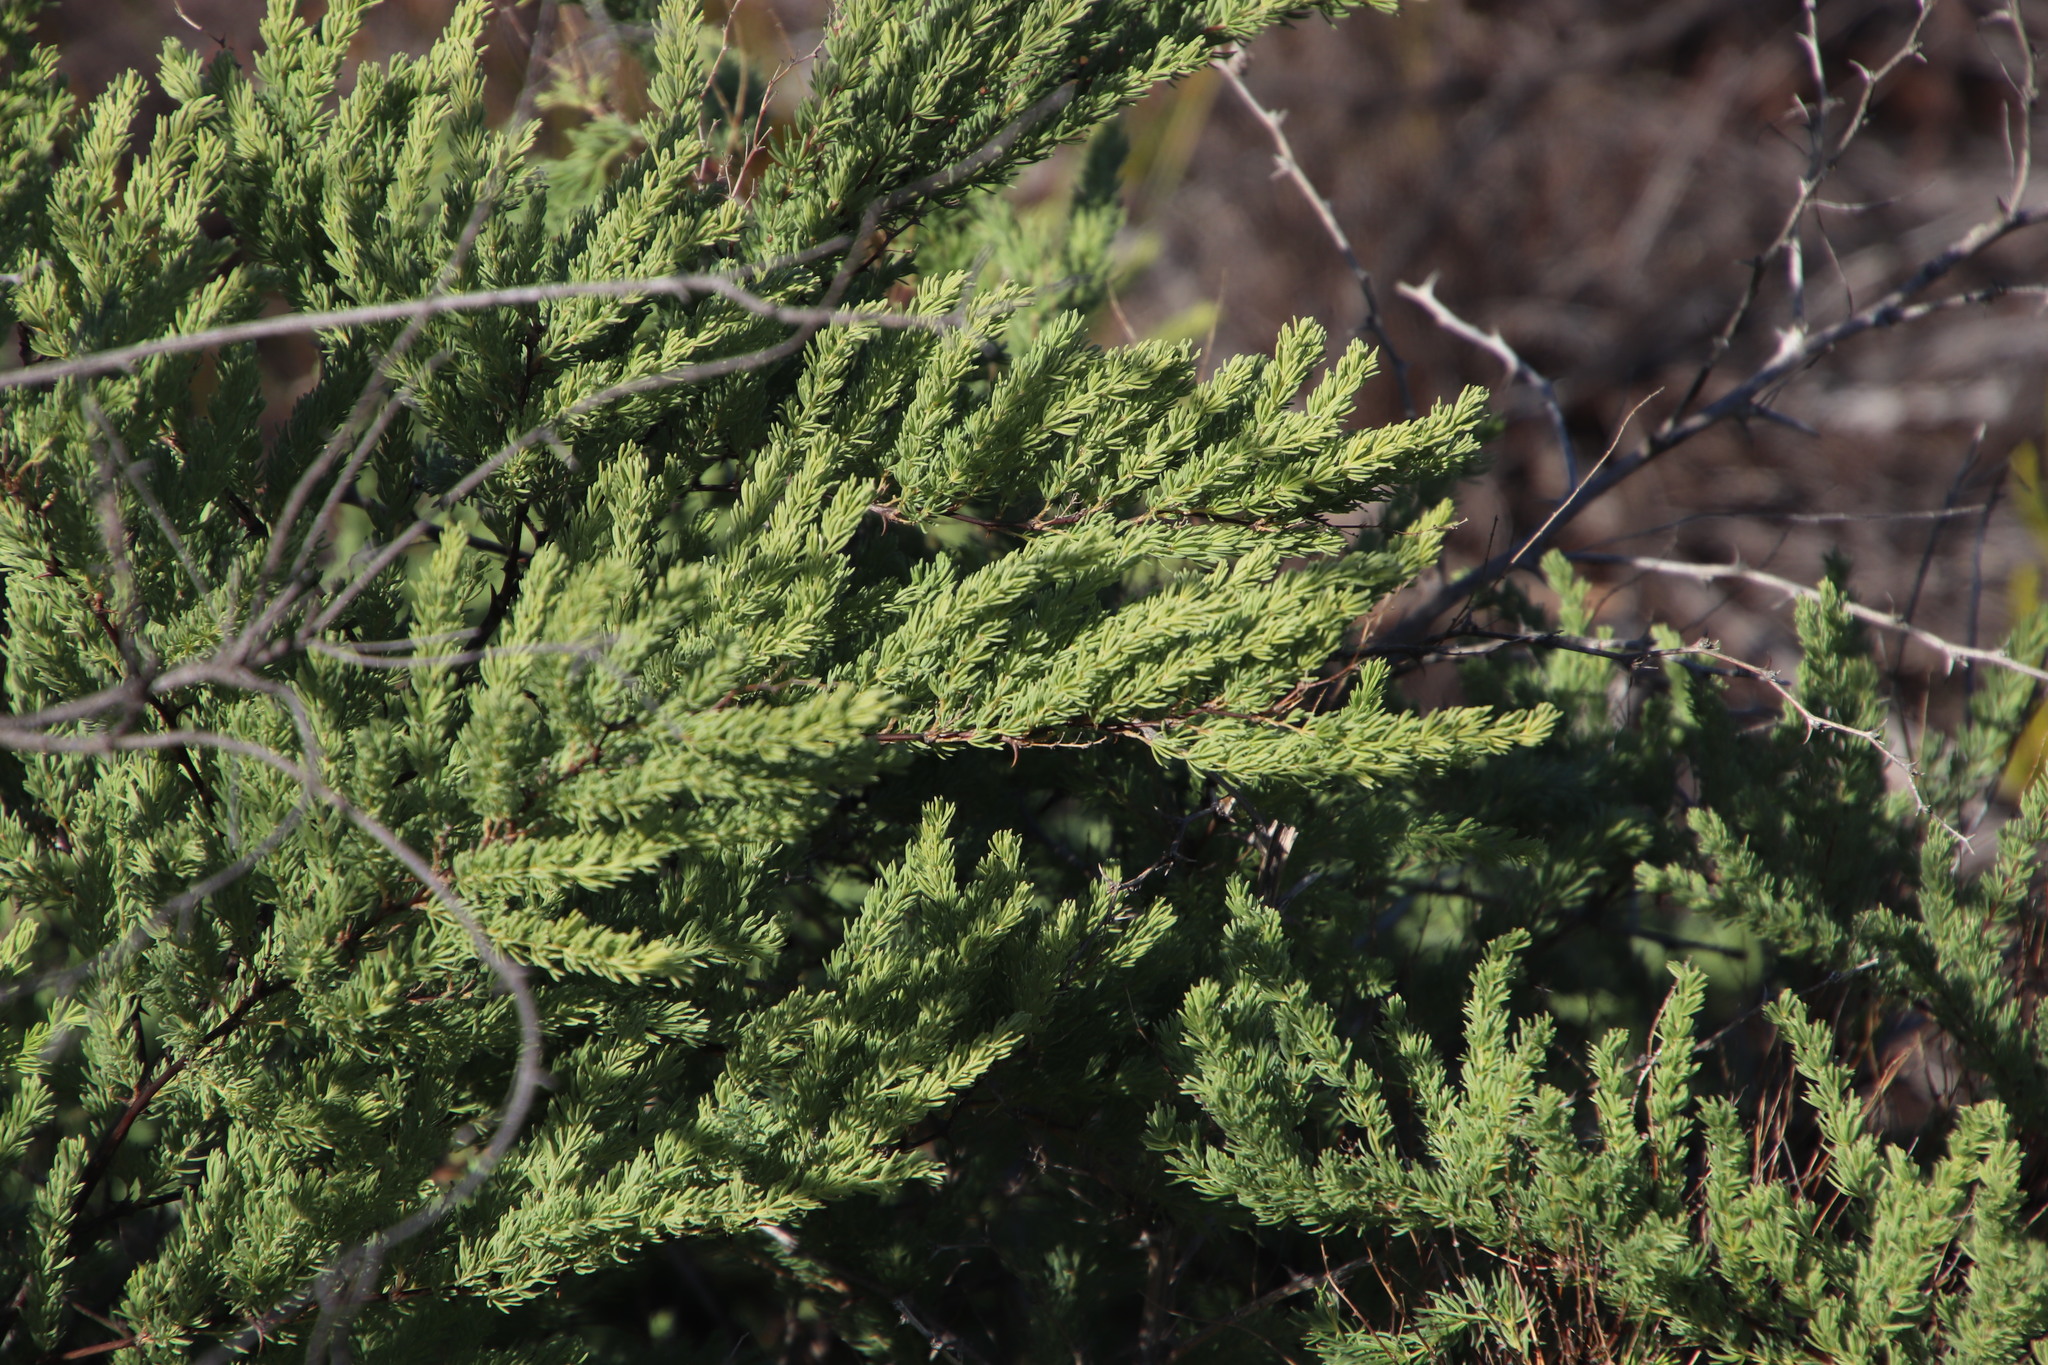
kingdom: Plantae
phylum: Tracheophyta
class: Liliopsida
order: Asparagales
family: Asparagaceae
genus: Asparagus
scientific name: Asparagus rubicundus
